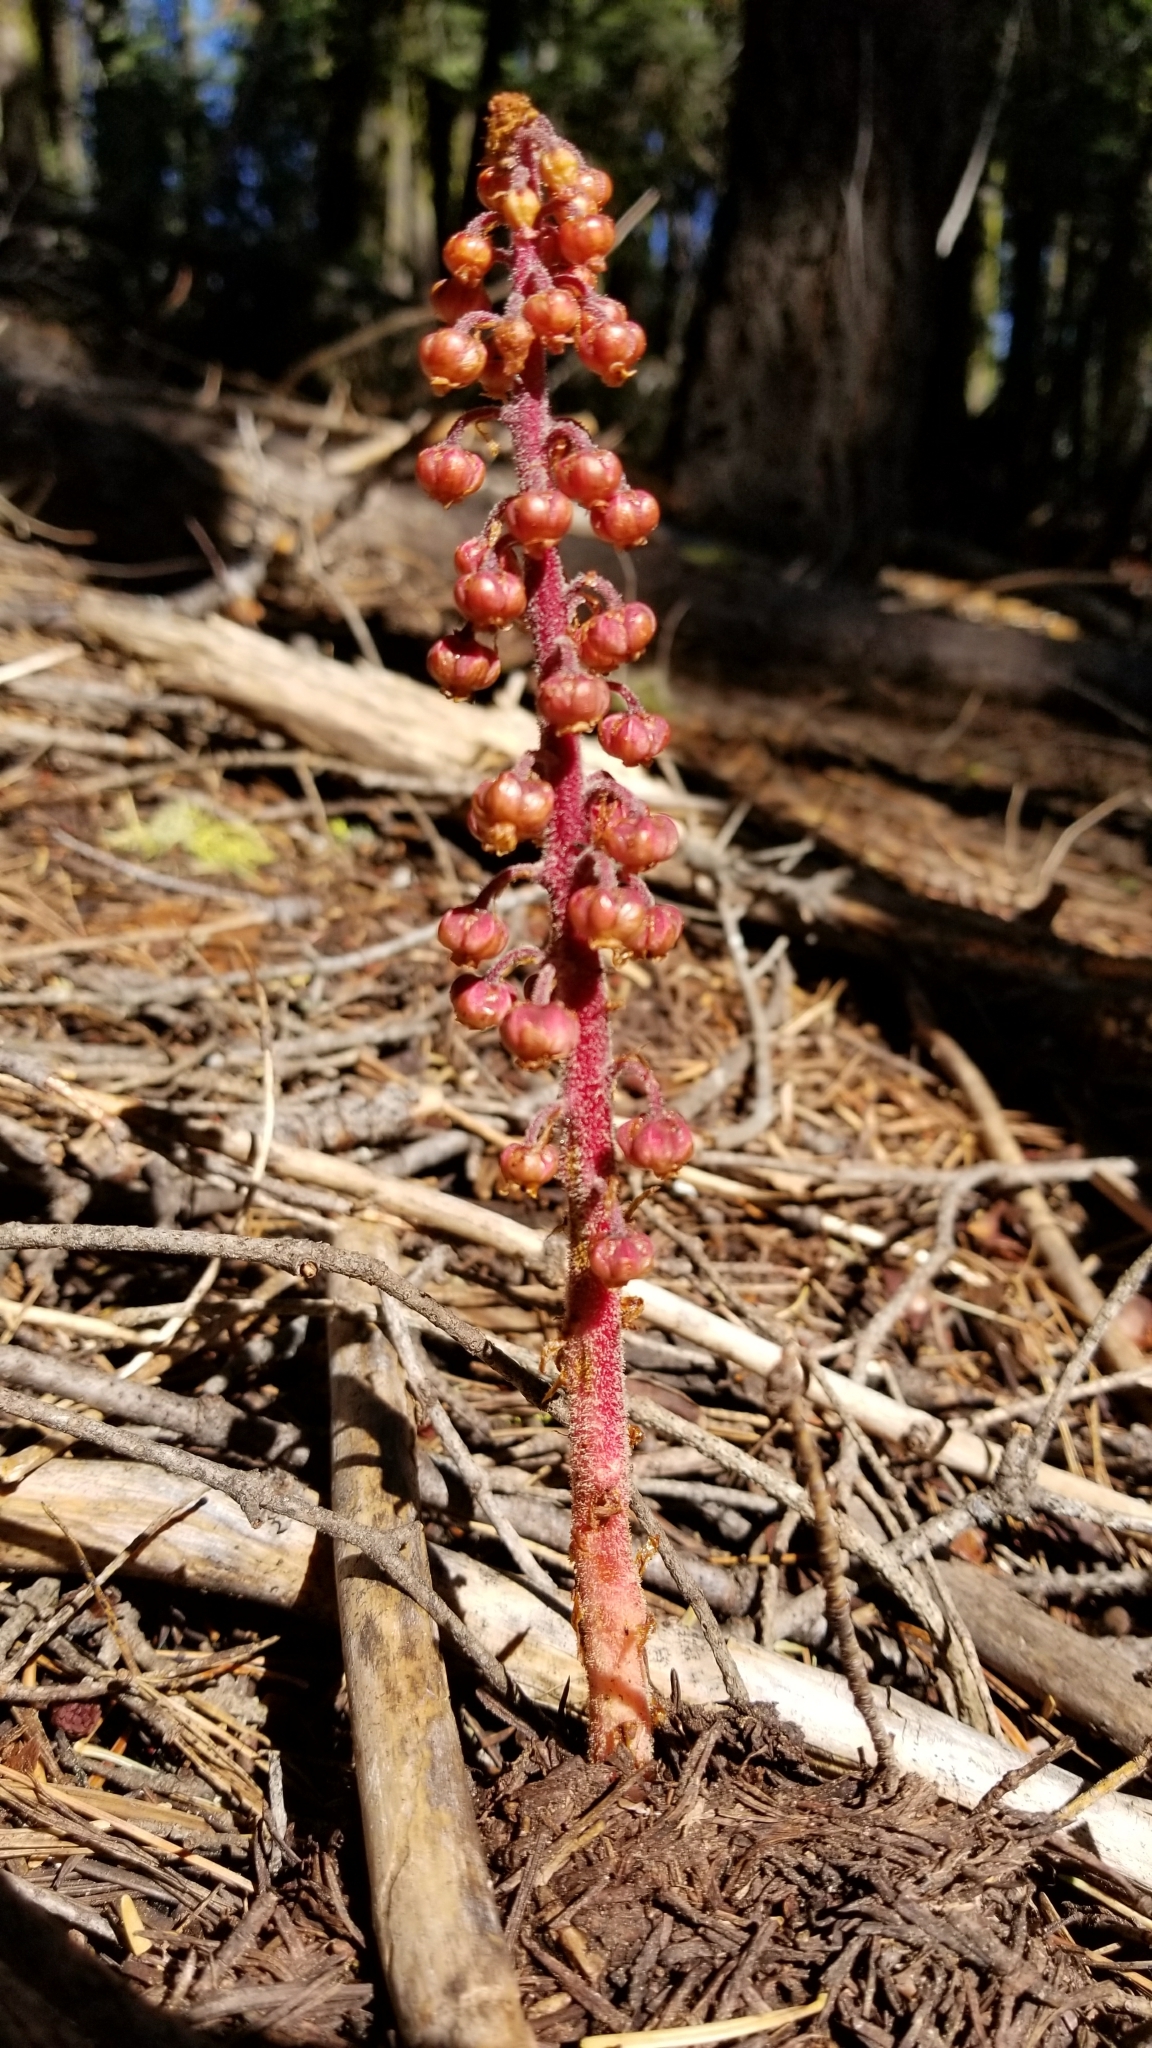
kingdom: Plantae
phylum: Tracheophyta
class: Magnoliopsida
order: Ericales
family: Ericaceae
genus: Pterospora
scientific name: Pterospora andromedea
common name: Giant bird's-nest
